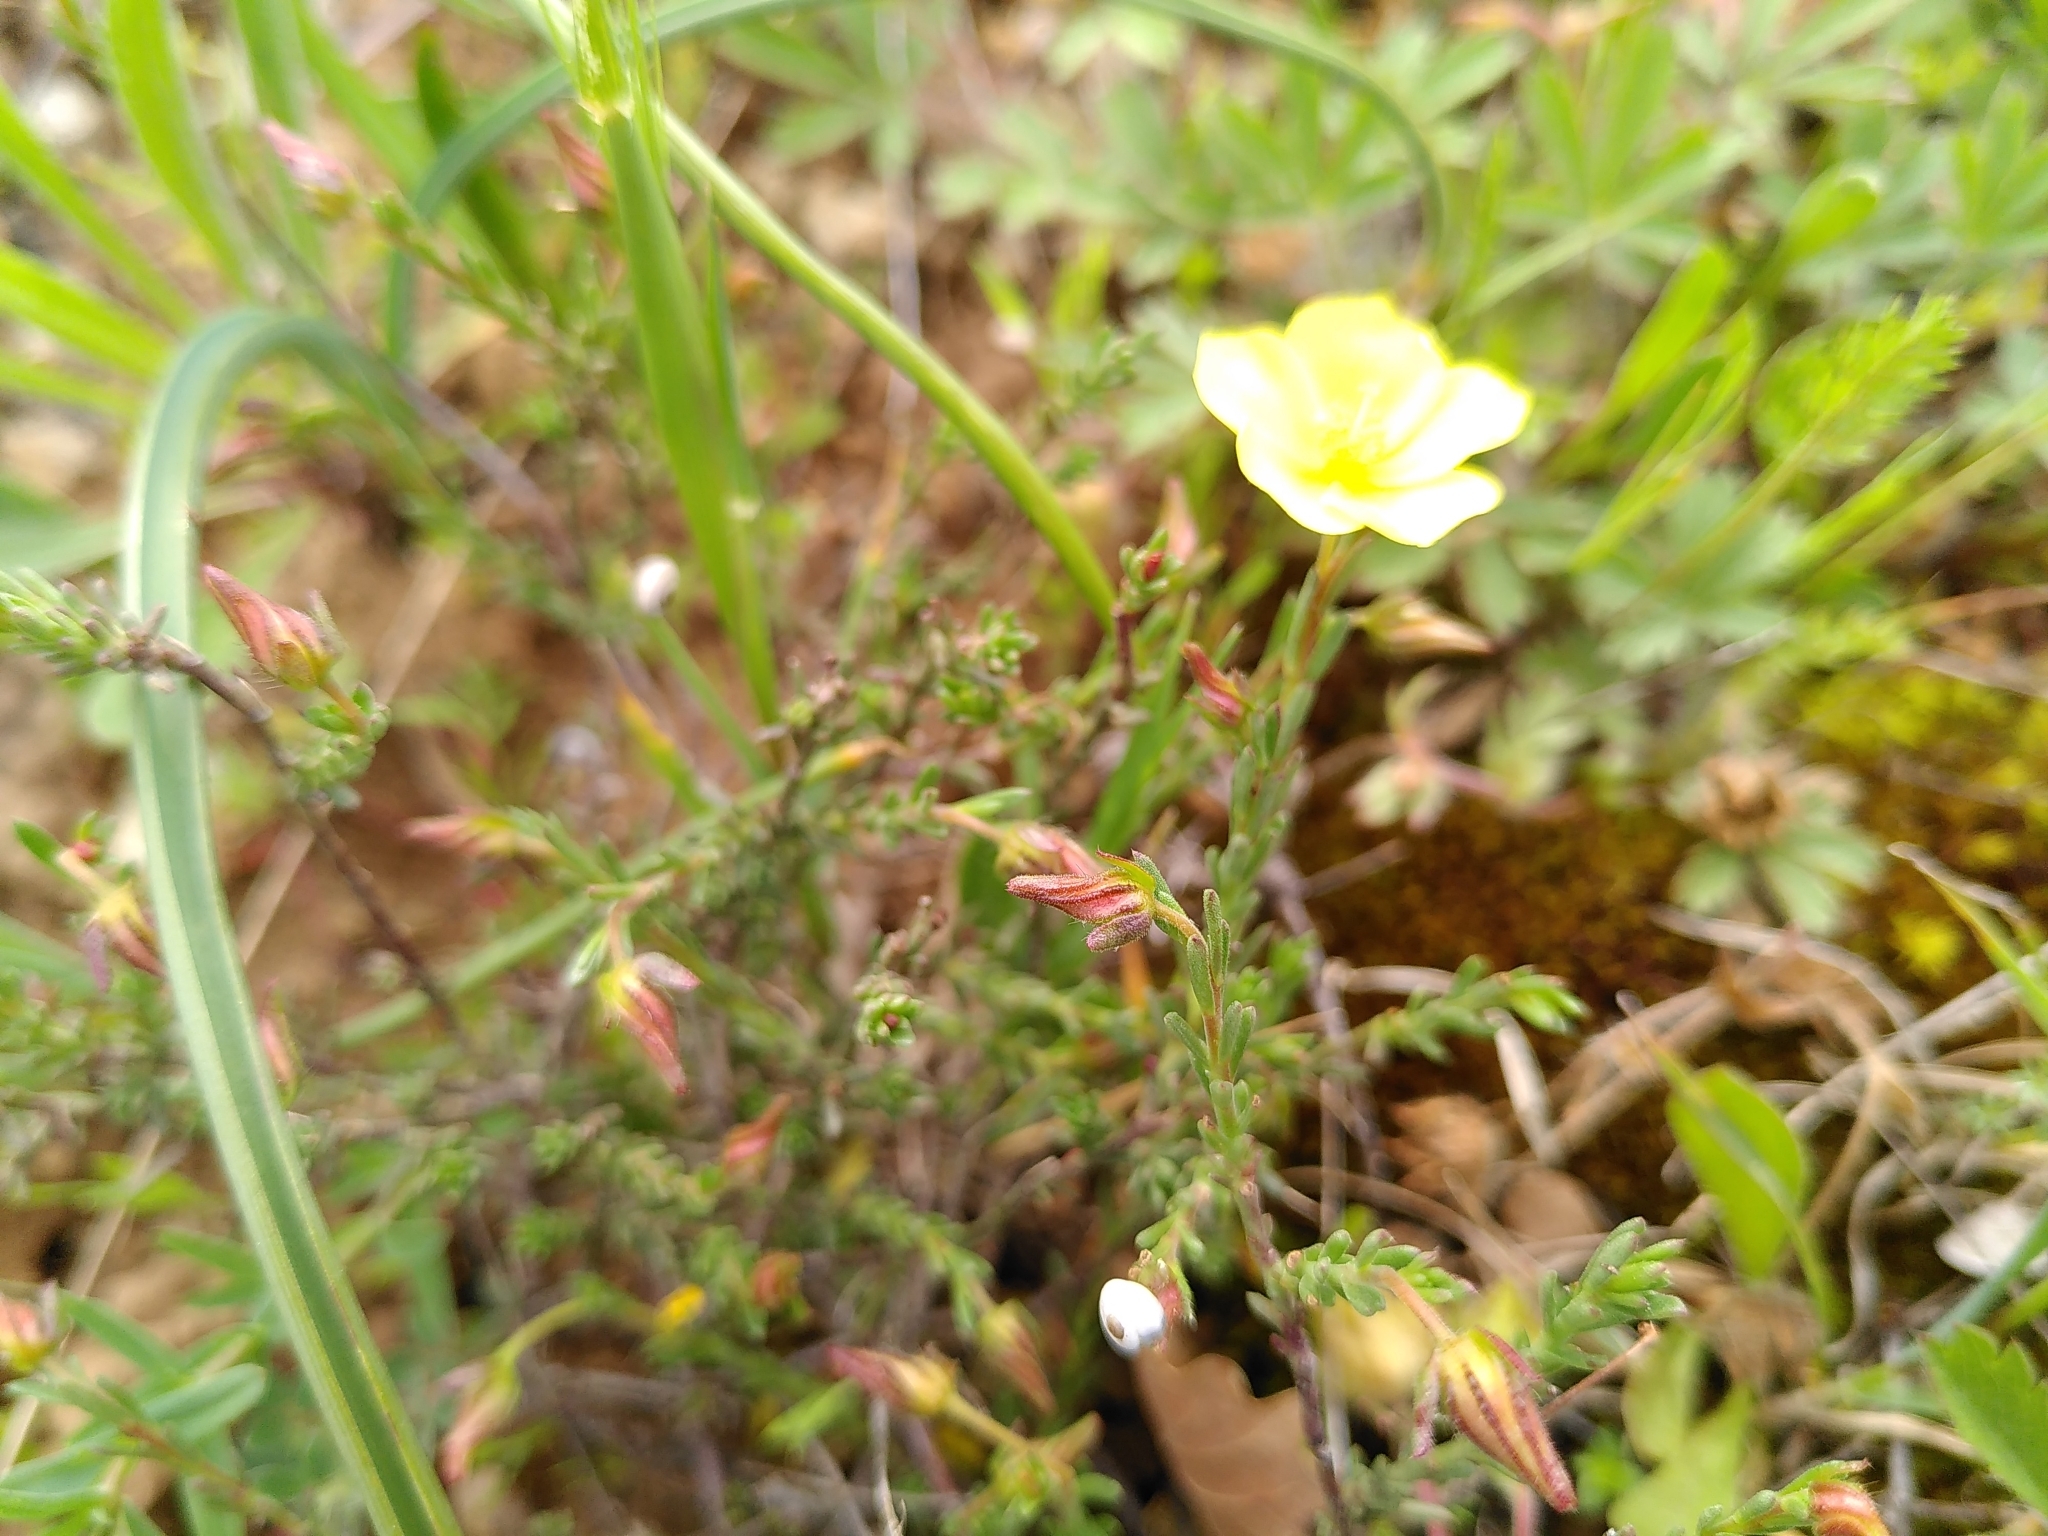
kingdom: Plantae
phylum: Tracheophyta
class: Magnoliopsida
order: Malvales
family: Cistaceae
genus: Fumana
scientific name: Fumana ericifolia
